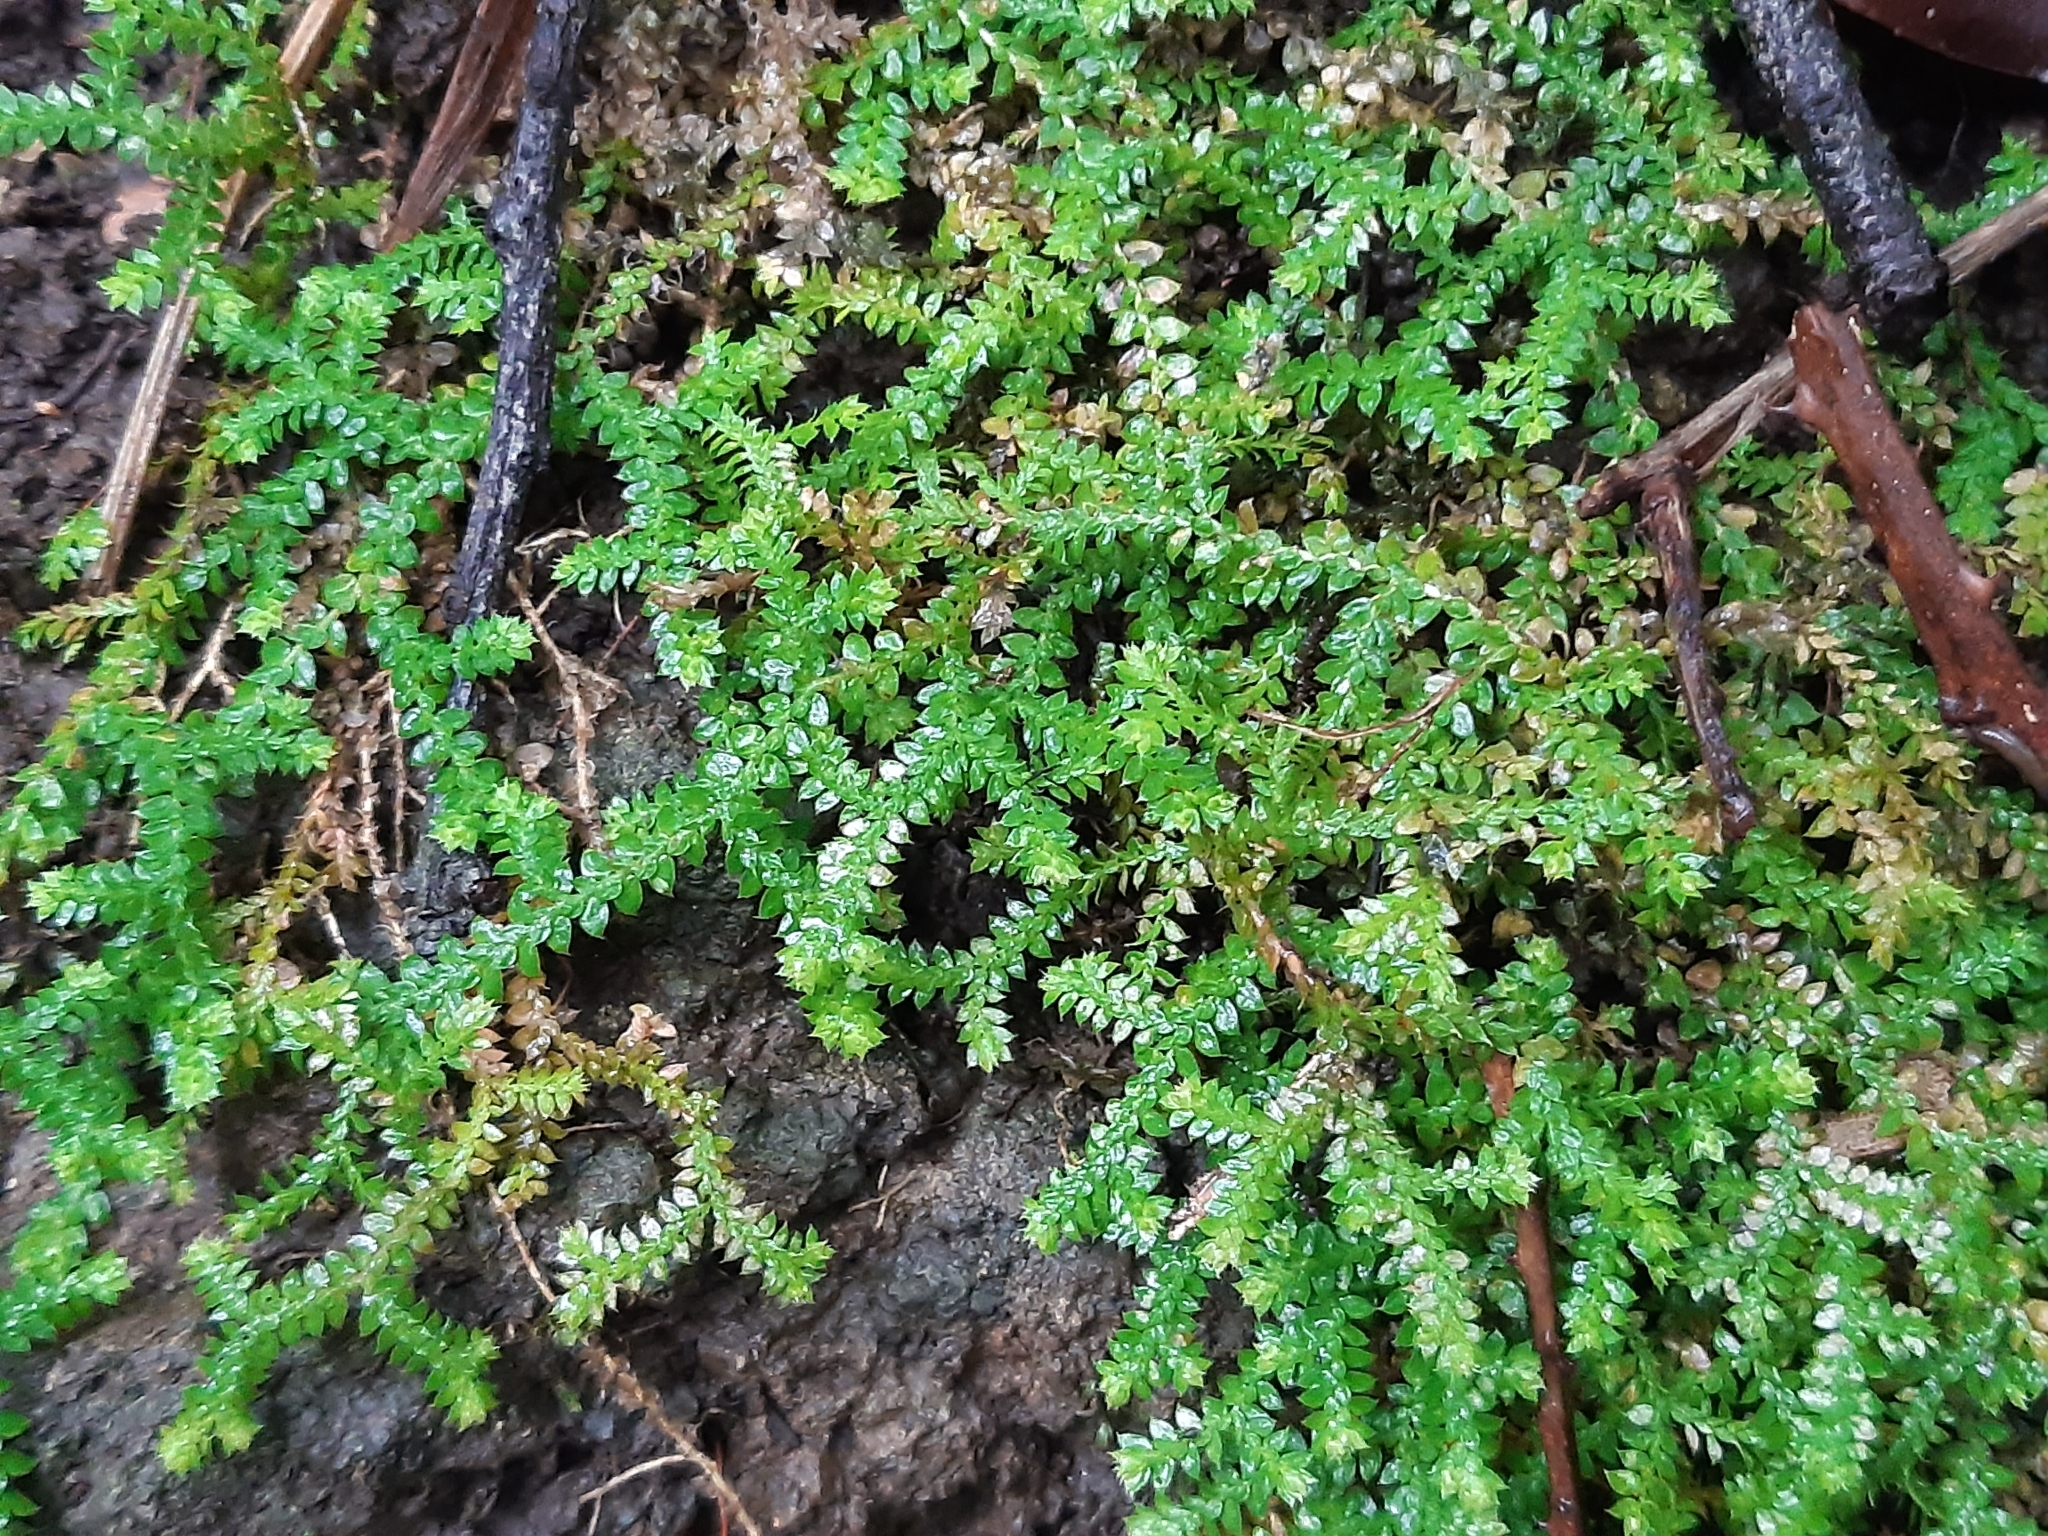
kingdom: Plantae
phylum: Tracheophyta
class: Lycopodiopsida
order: Selaginellales
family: Selaginellaceae
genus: Selaginella
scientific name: Selaginella denticulata
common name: Toothed-leaved clubmoss
